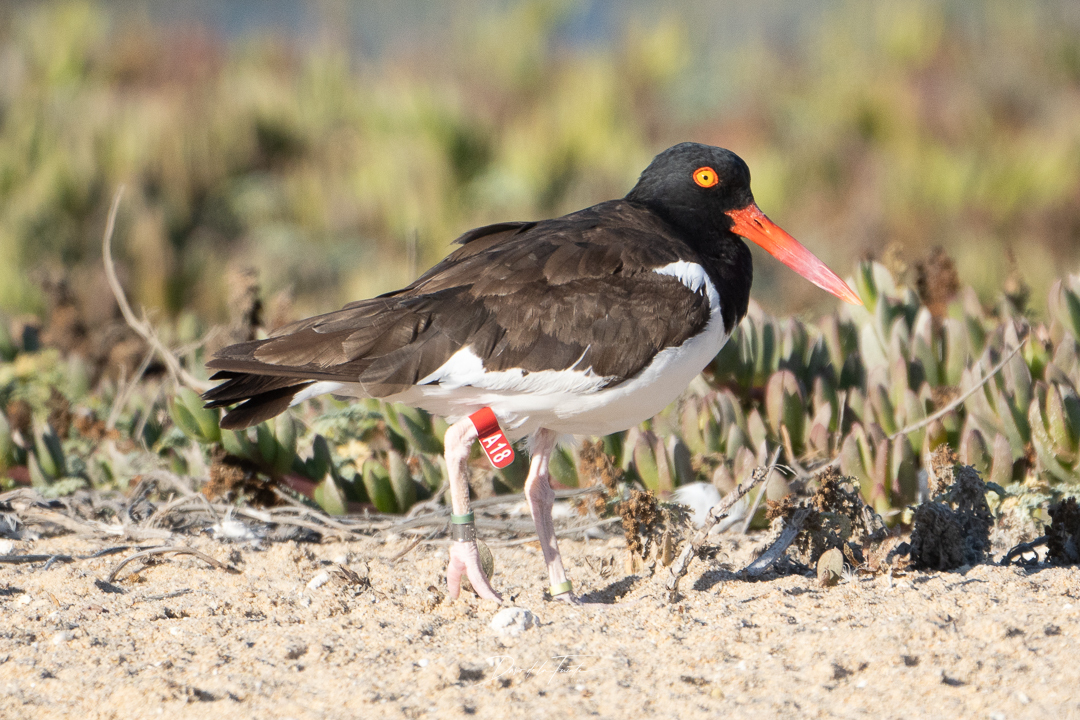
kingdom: Animalia
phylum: Chordata
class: Aves
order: Charadriiformes
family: Haematopodidae
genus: Haematopus
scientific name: Haematopus palliatus
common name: American oystercatcher
